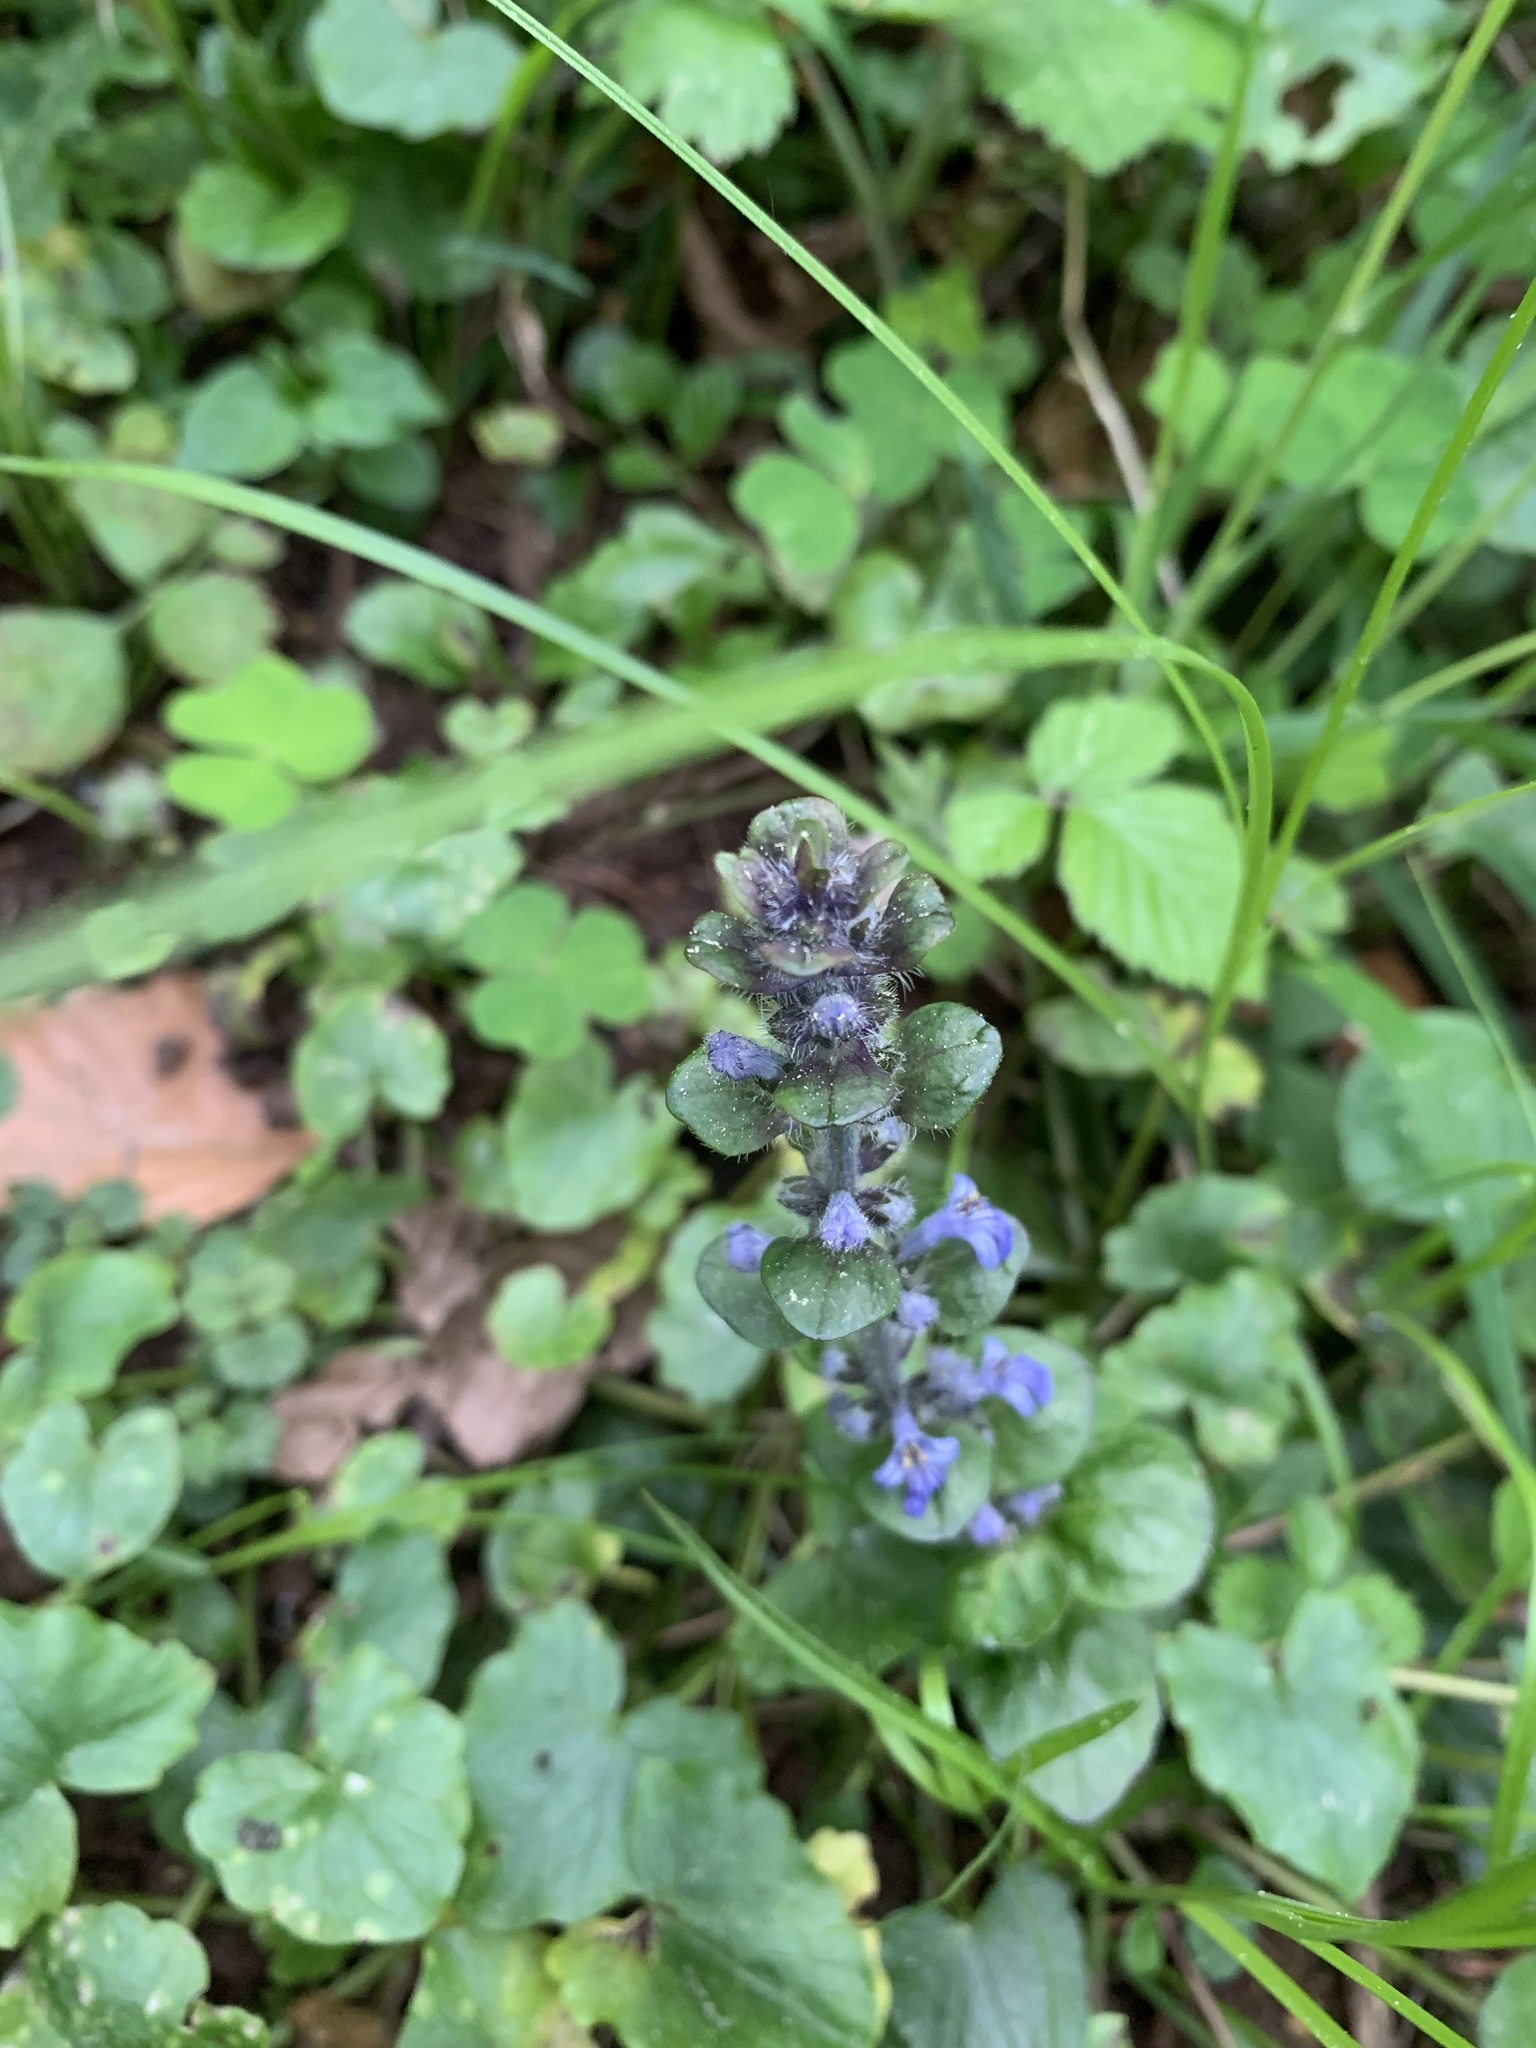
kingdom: Plantae
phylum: Tracheophyta
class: Magnoliopsida
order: Lamiales
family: Lamiaceae
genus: Ajuga
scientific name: Ajuga reptans
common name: Bugle
